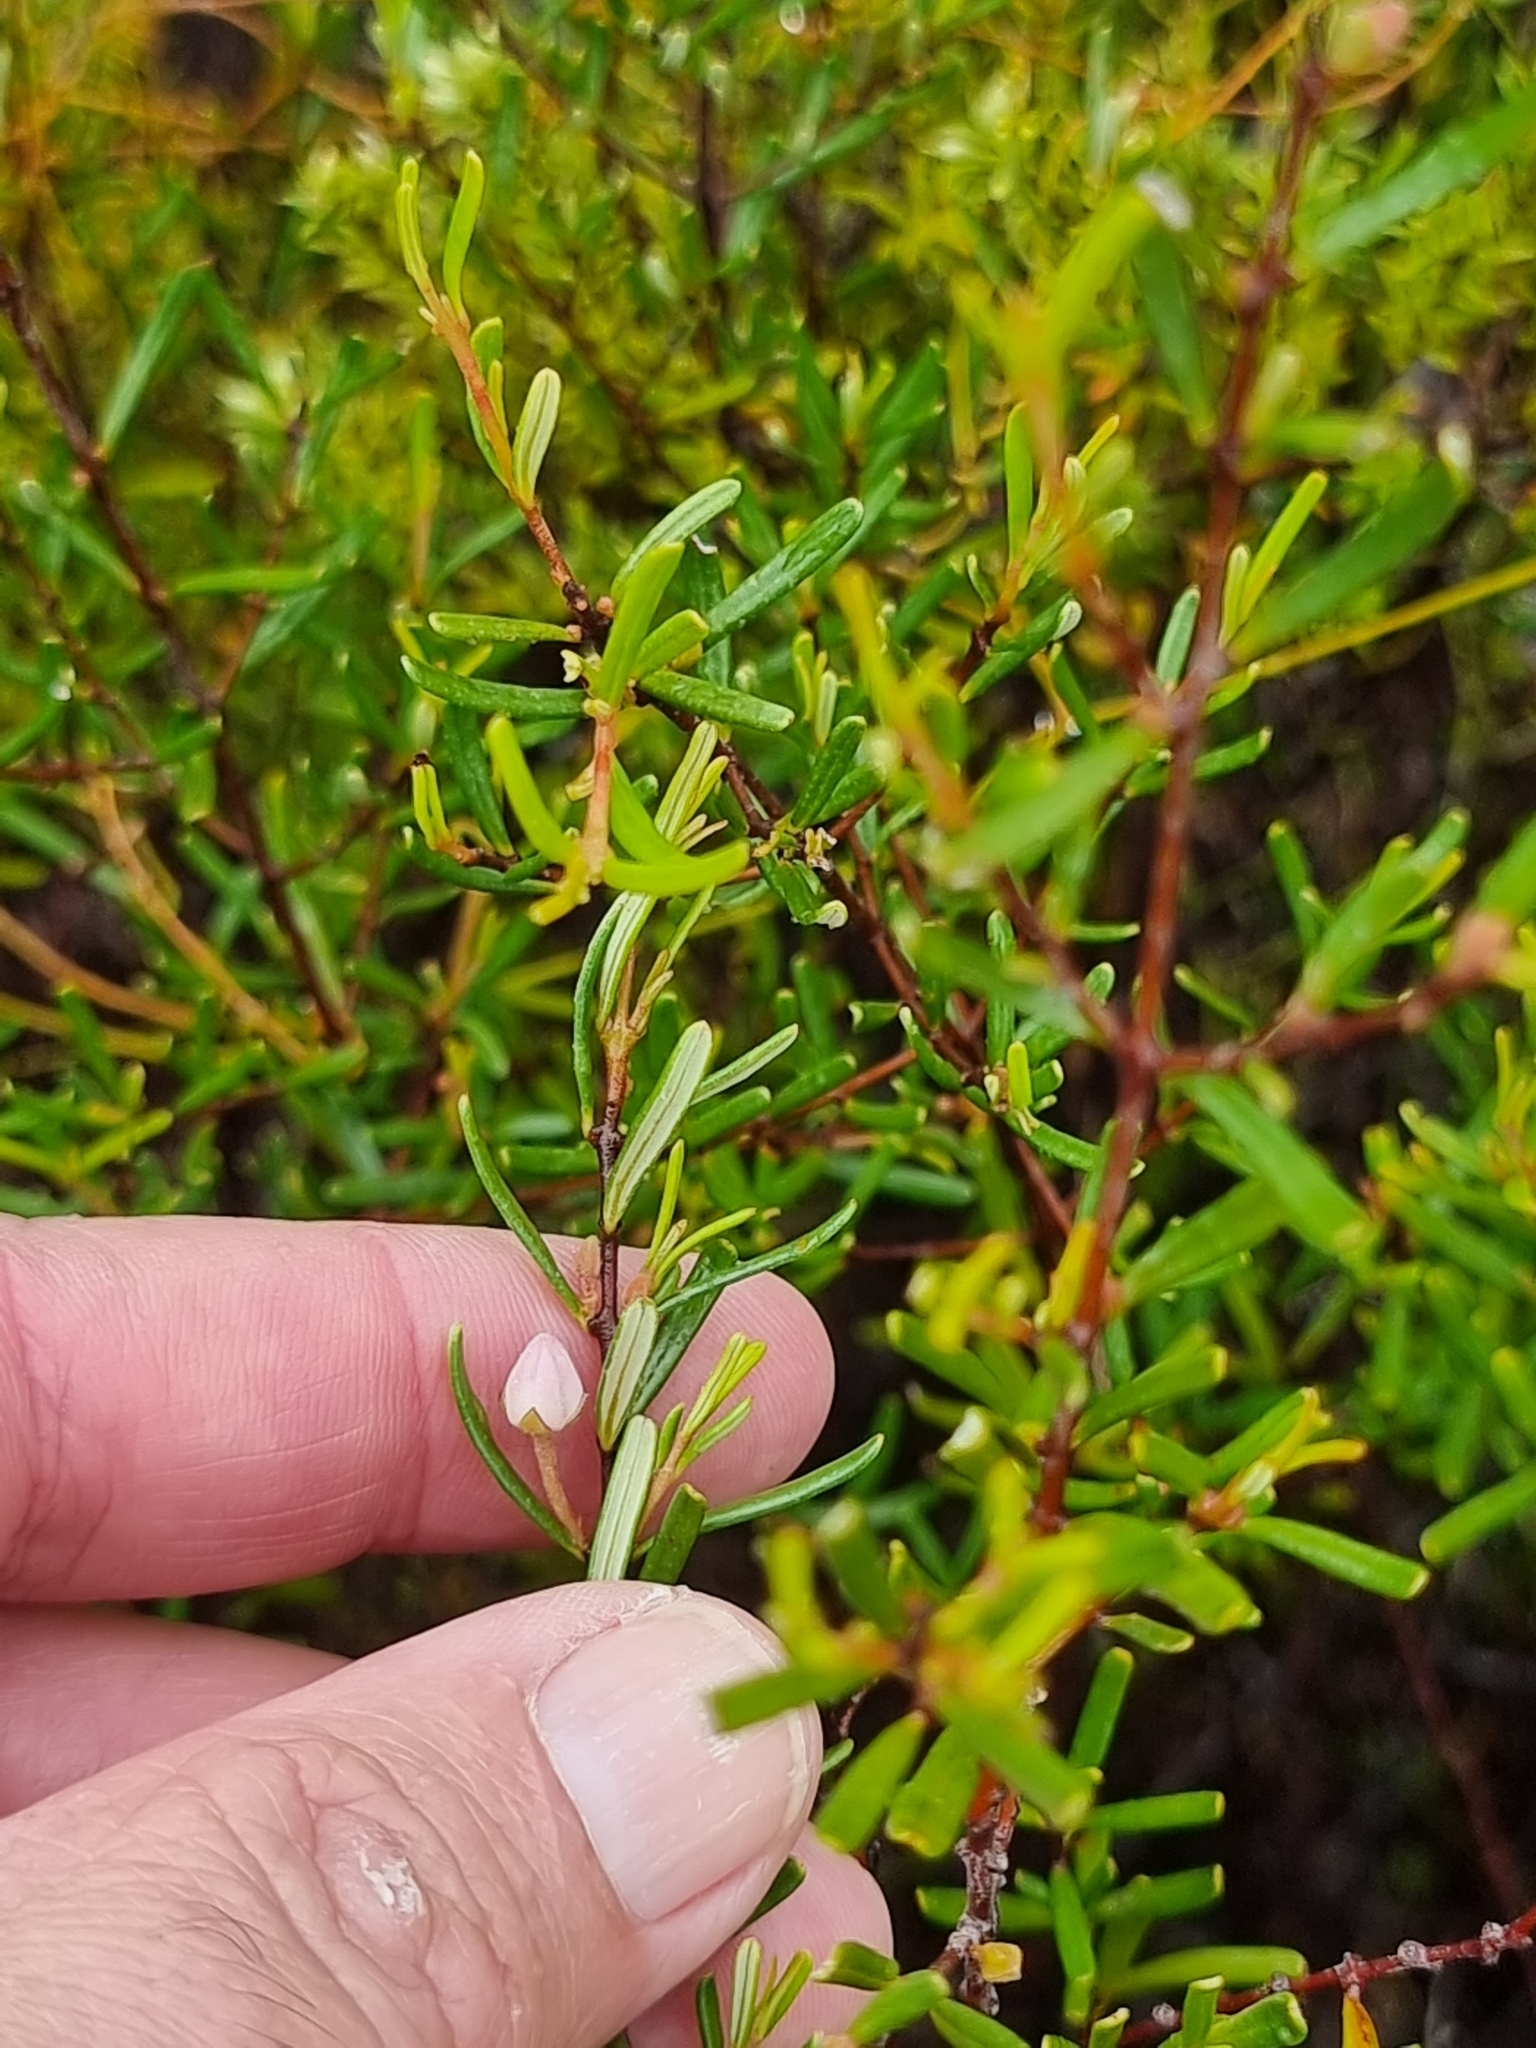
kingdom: Plantae
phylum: Tracheophyta
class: Magnoliopsida
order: Sapindales
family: Rutaceae
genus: Boronia
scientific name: Boronia rosmarinifolia
